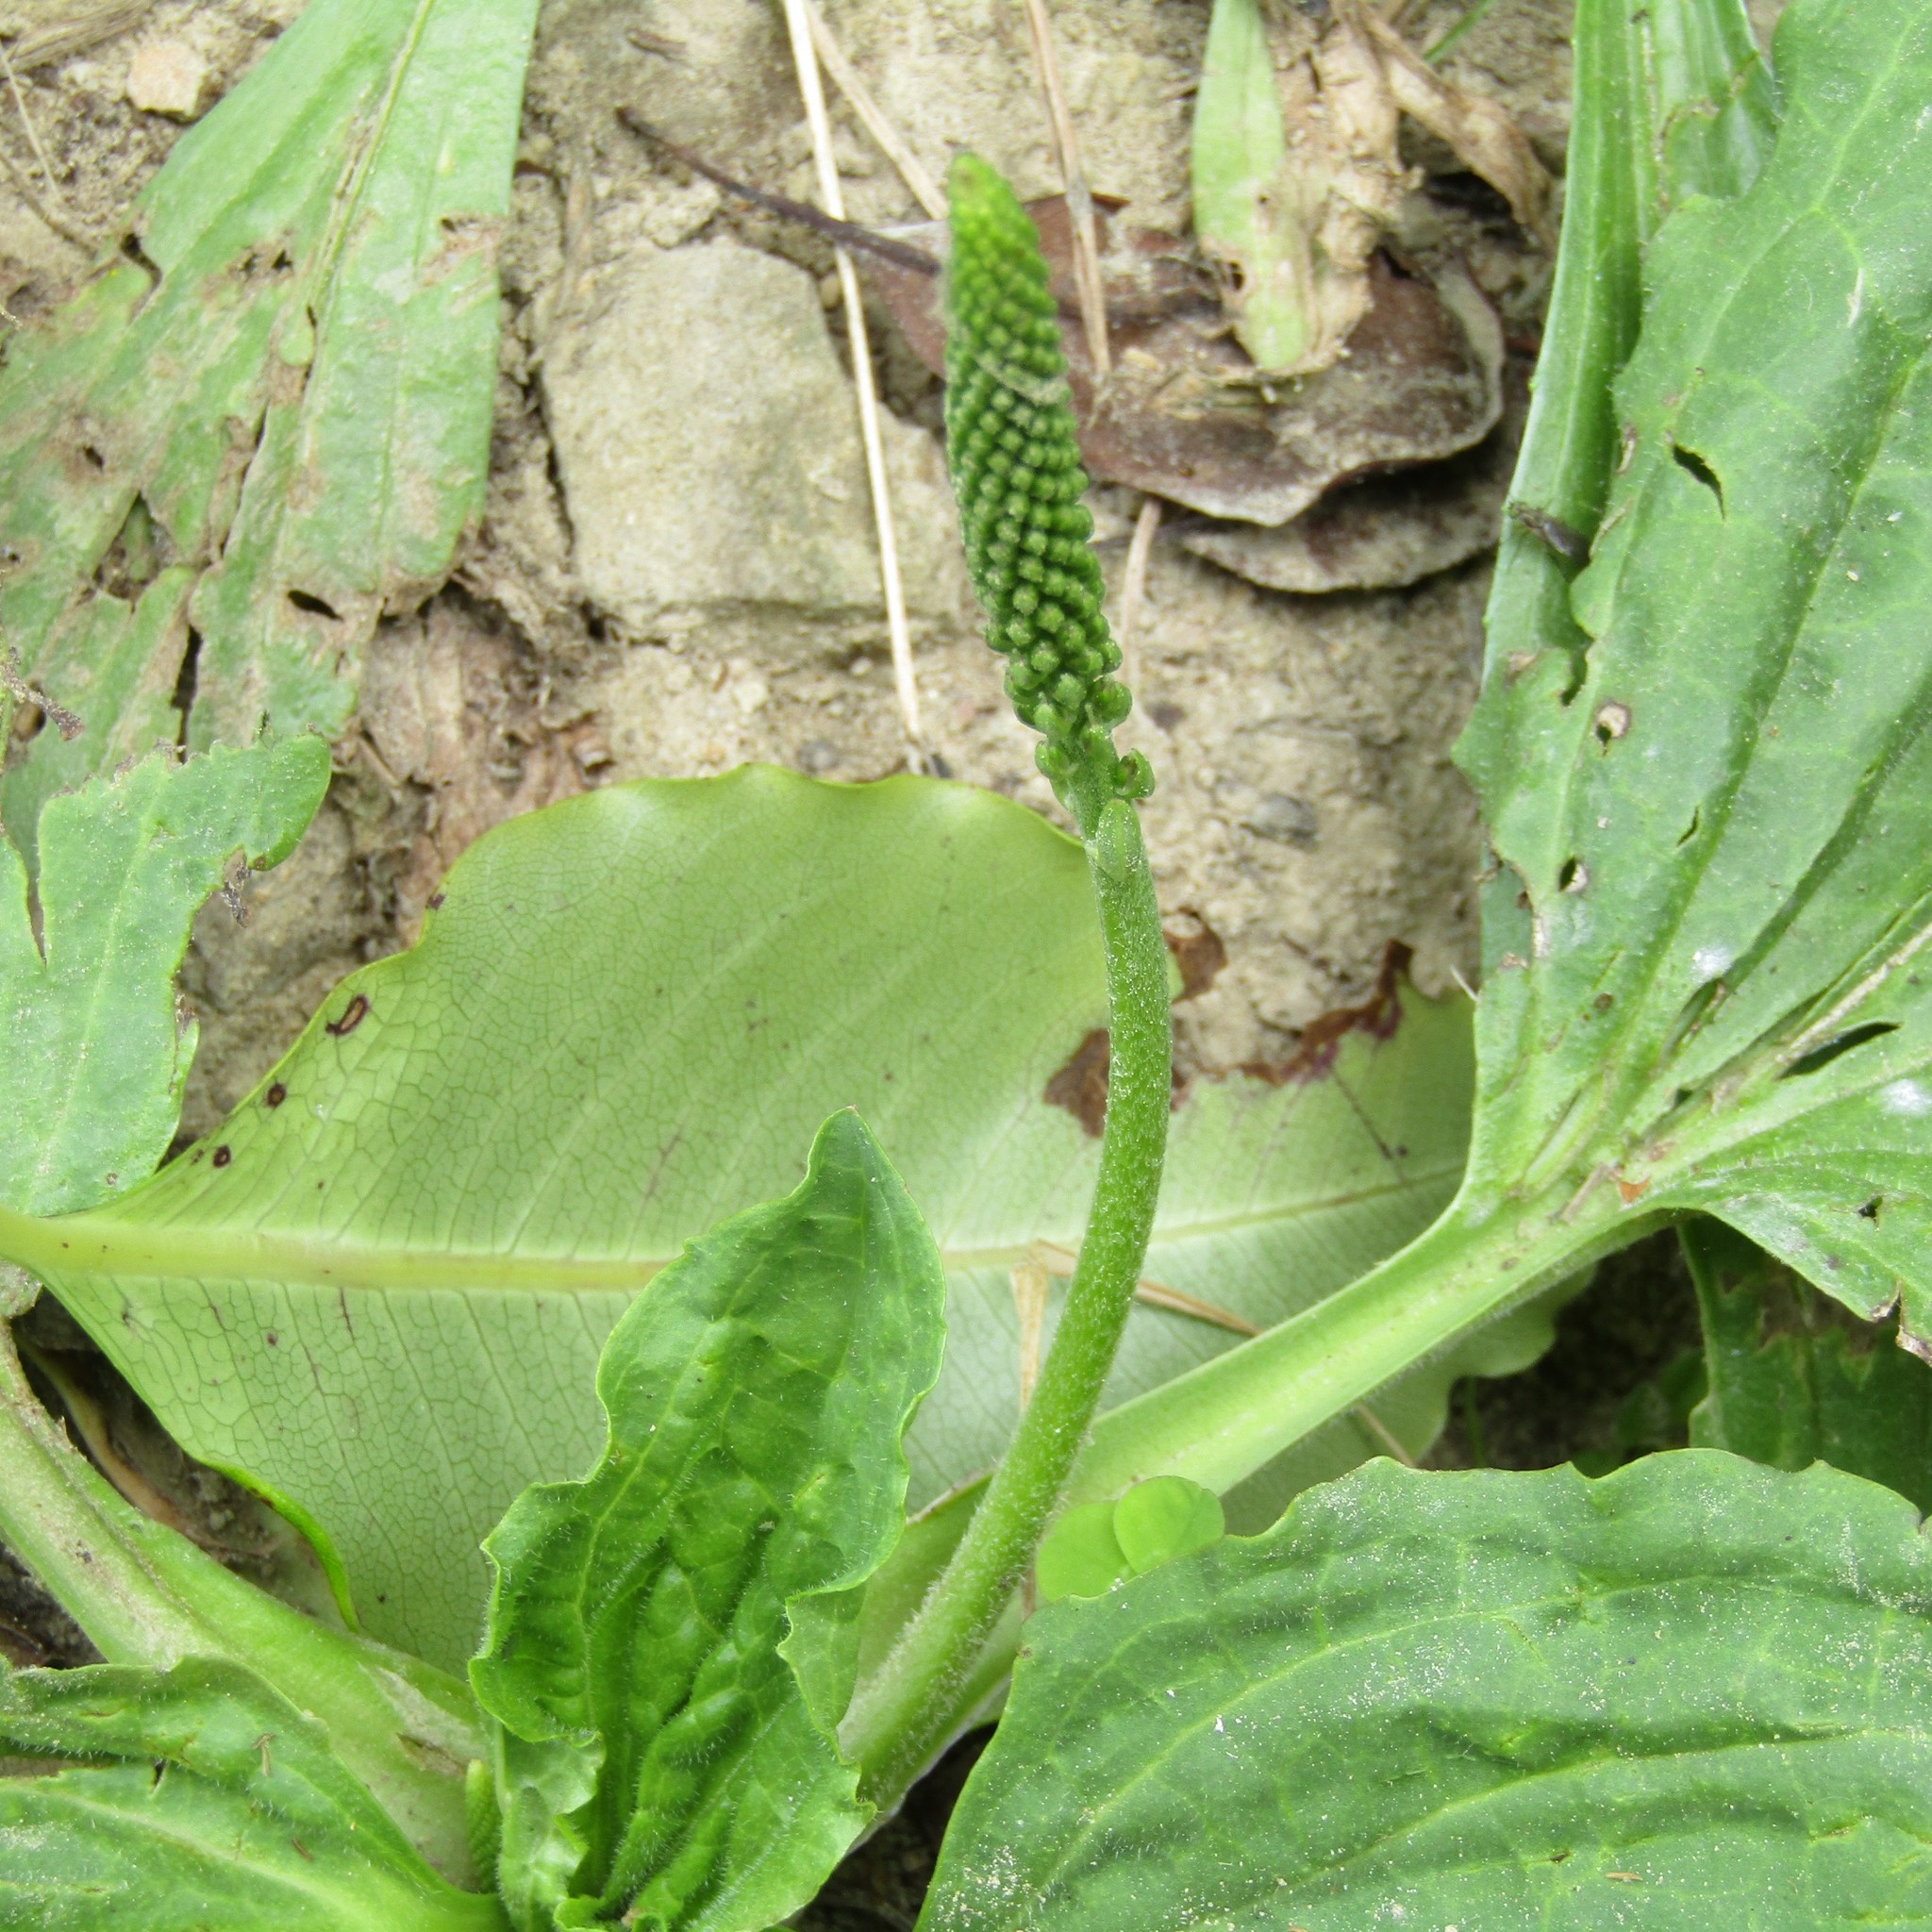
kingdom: Plantae
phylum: Tracheophyta
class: Magnoliopsida
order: Lamiales
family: Plantaginaceae
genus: Plantago
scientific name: Plantago major
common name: Common plantain
